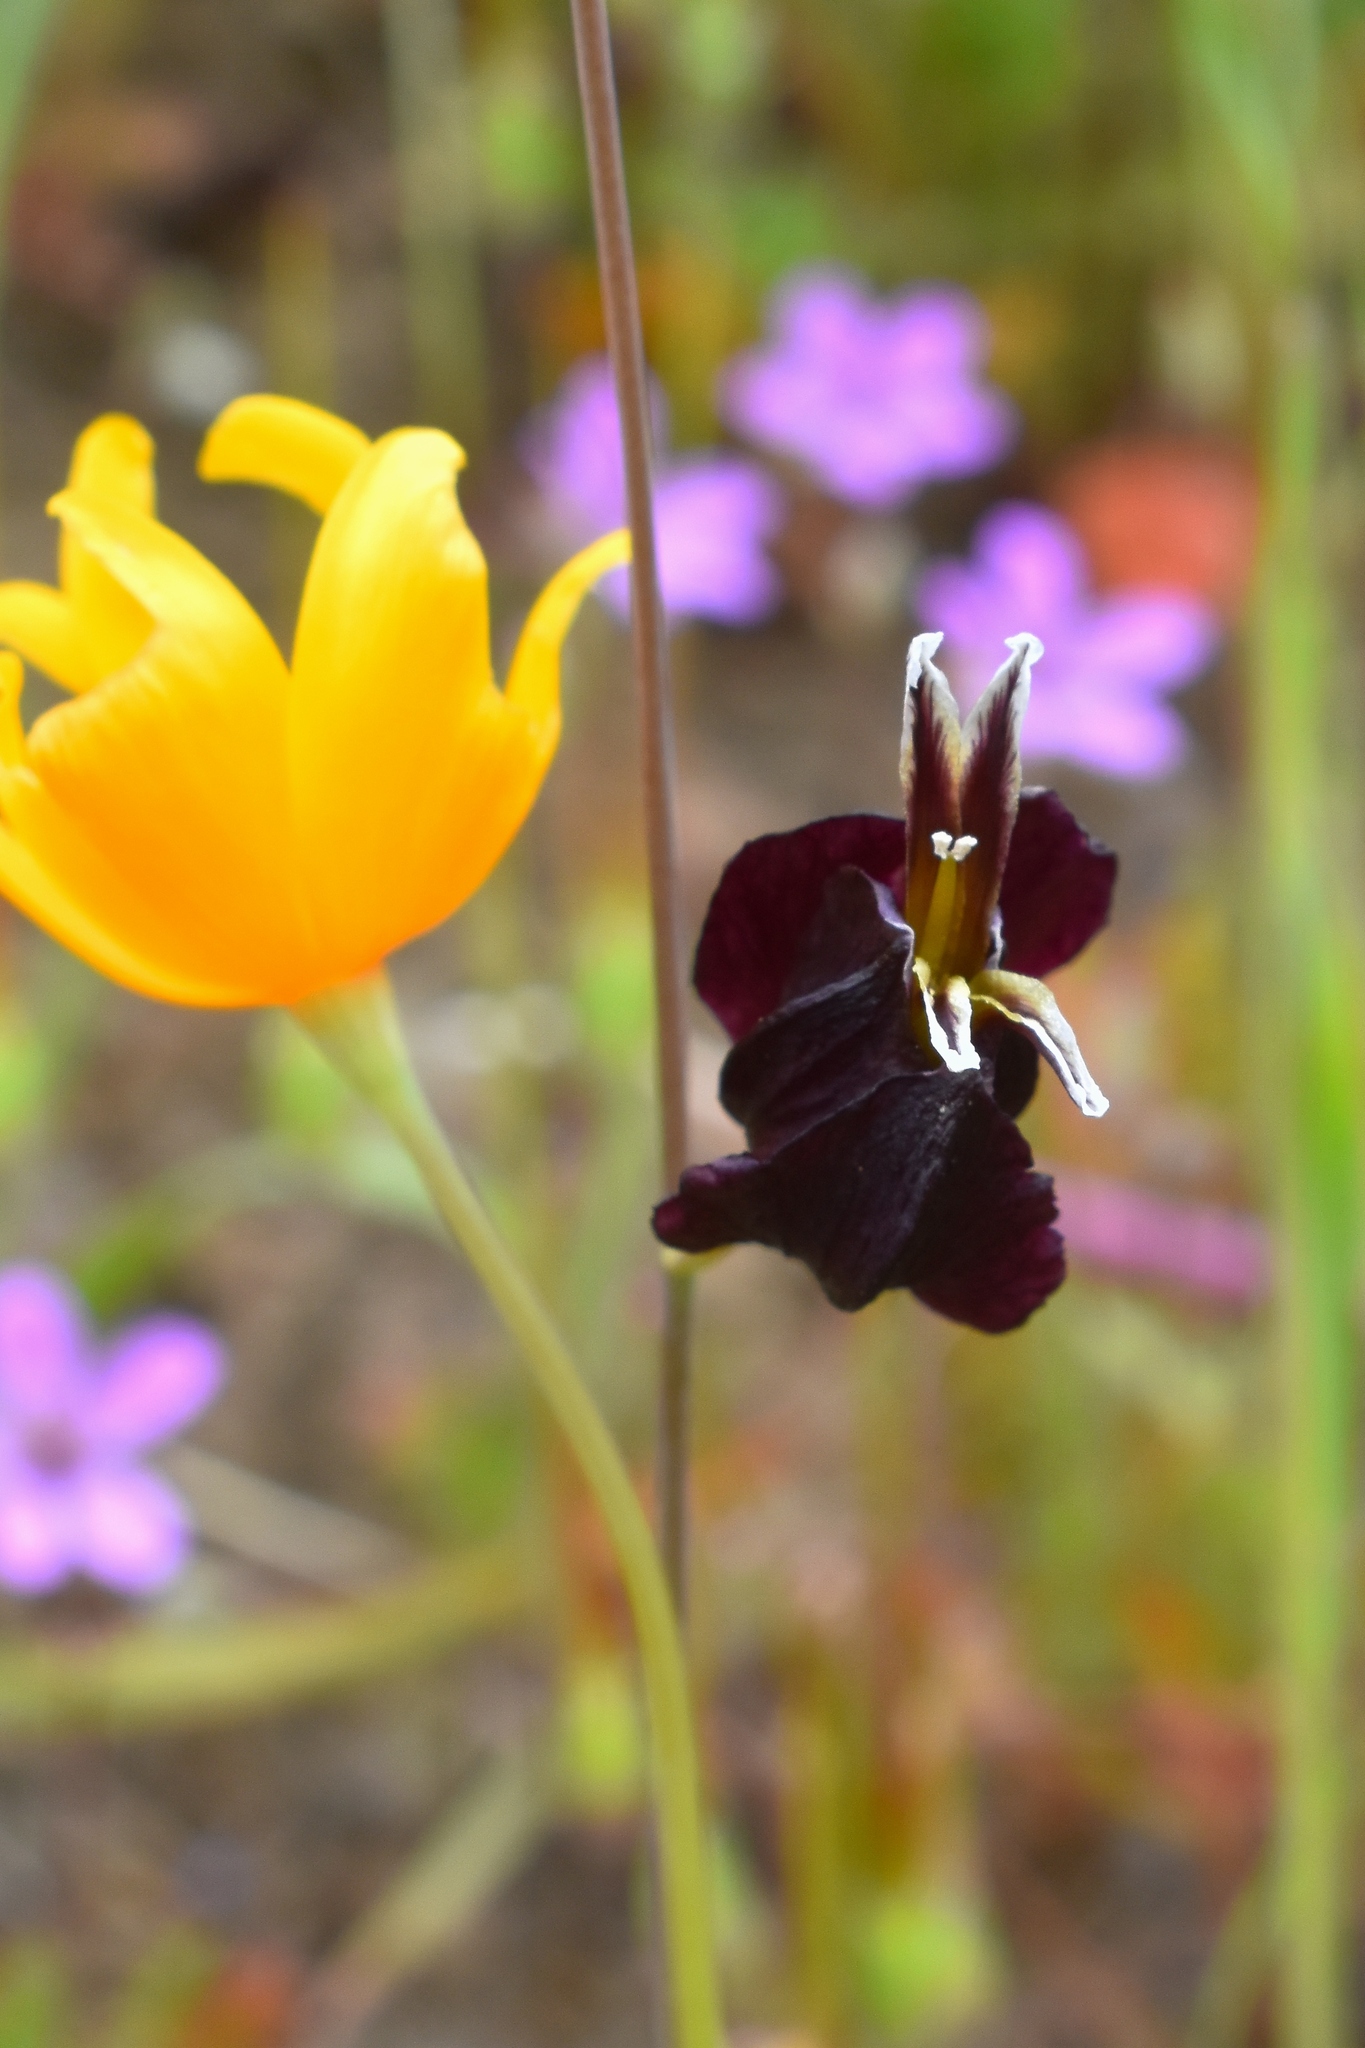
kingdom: Plantae
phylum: Tracheophyta
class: Magnoliopsida
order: Brassicales
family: Brassicaceae
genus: Streptanthus
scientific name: Streptanthus glandulosus
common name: Jewel-flower
